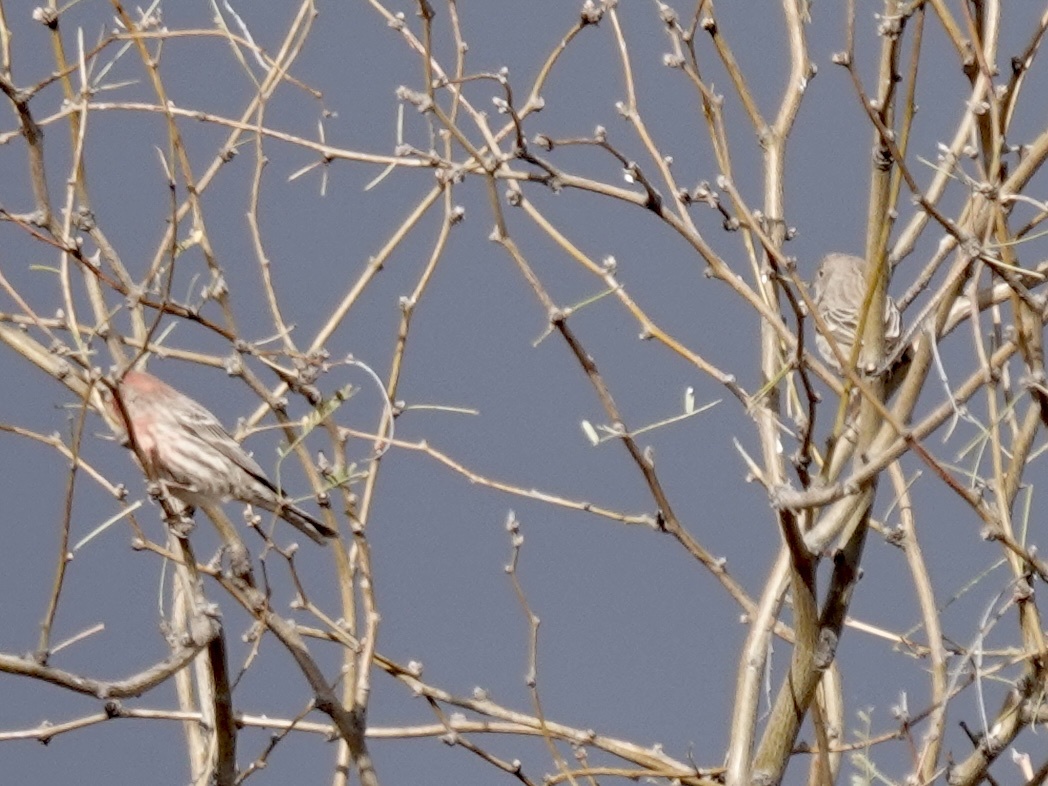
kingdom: Animalia
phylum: Chordata
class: Aves
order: Passeriformes
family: Fringillidae
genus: Haemorhous
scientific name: Haemorhous mexicanus
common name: House finch
